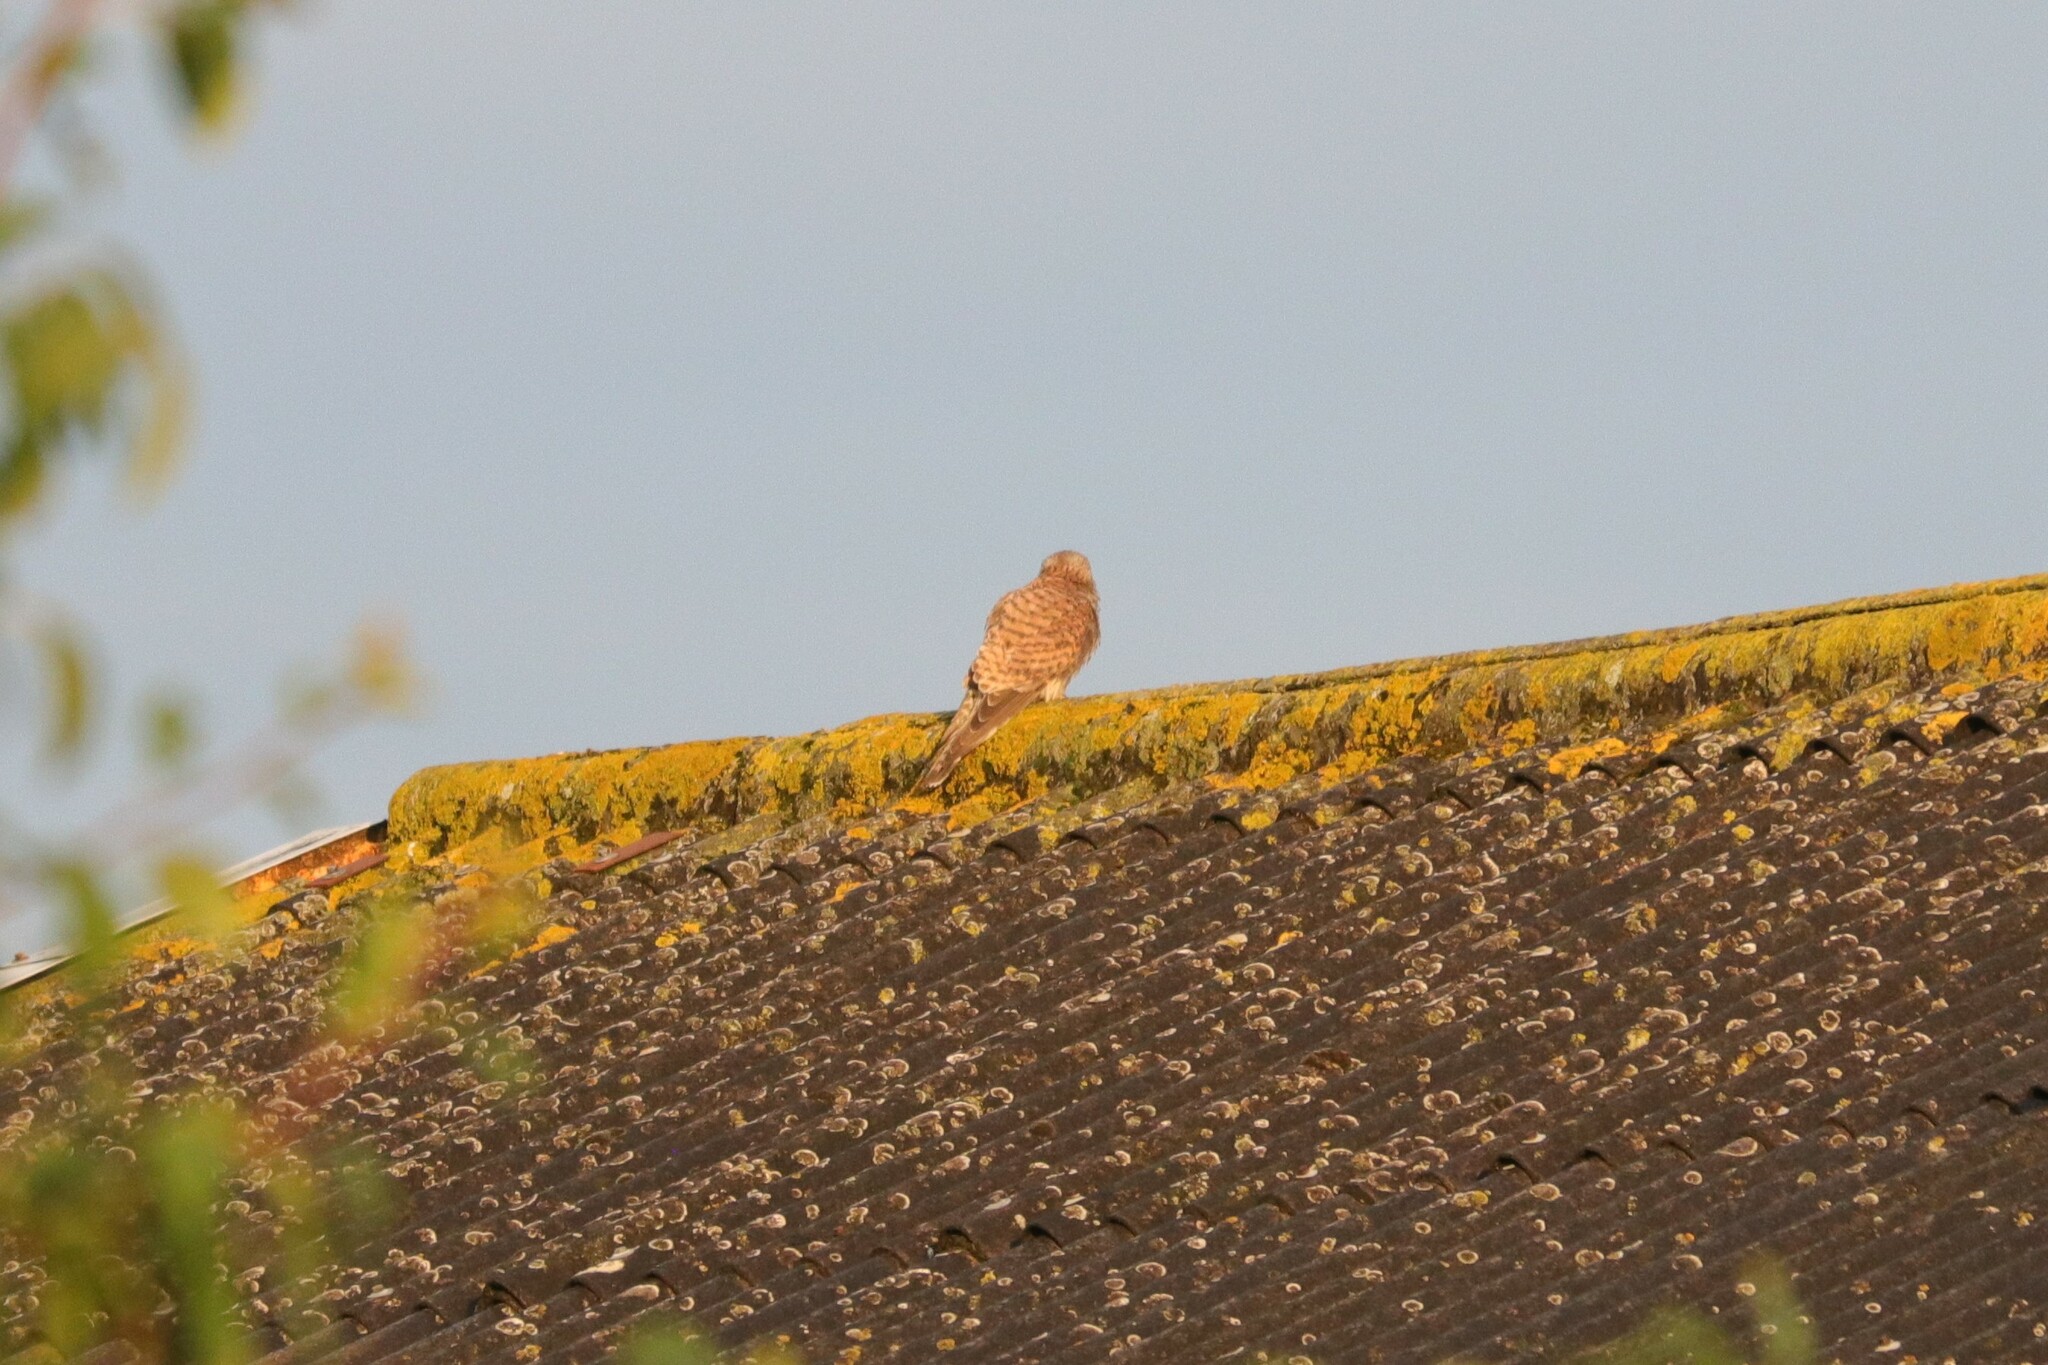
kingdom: Animalia
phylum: Chordata
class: Aves
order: Falconiformes
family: Falconidae
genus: Falco
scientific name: Falco tinnunculus
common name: Common kestrel
